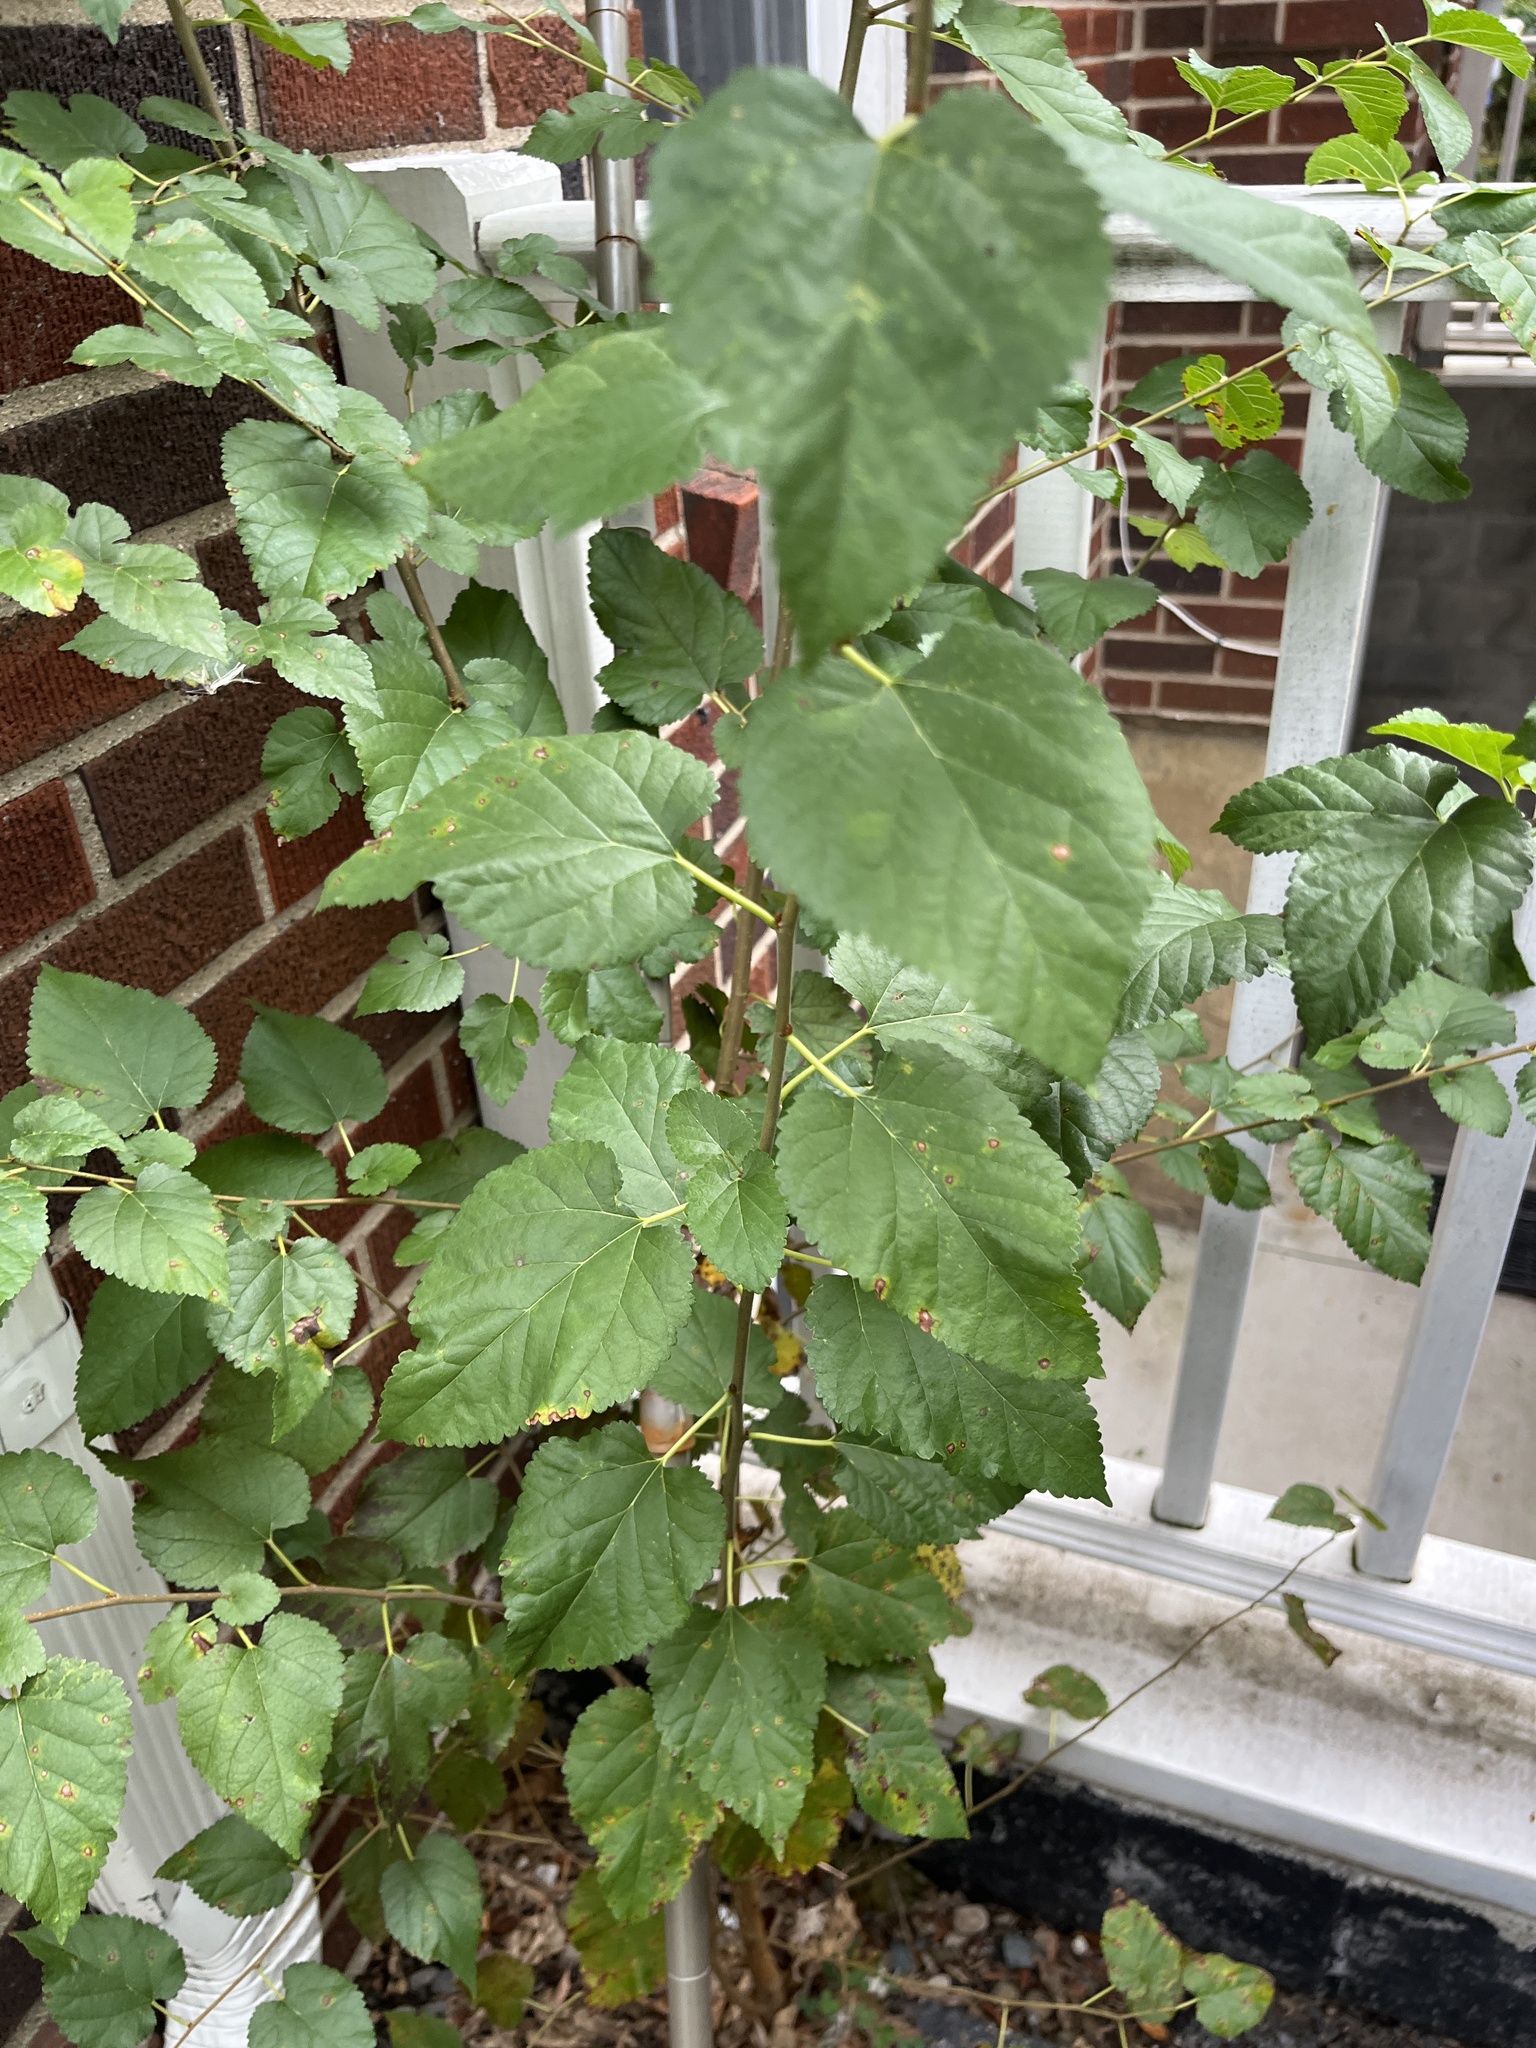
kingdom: Plantae
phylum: Tracheophyta
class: Magnoliopsida
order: Rosales
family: Moraceae
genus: Morus
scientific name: Morus alba
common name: White mulberry
